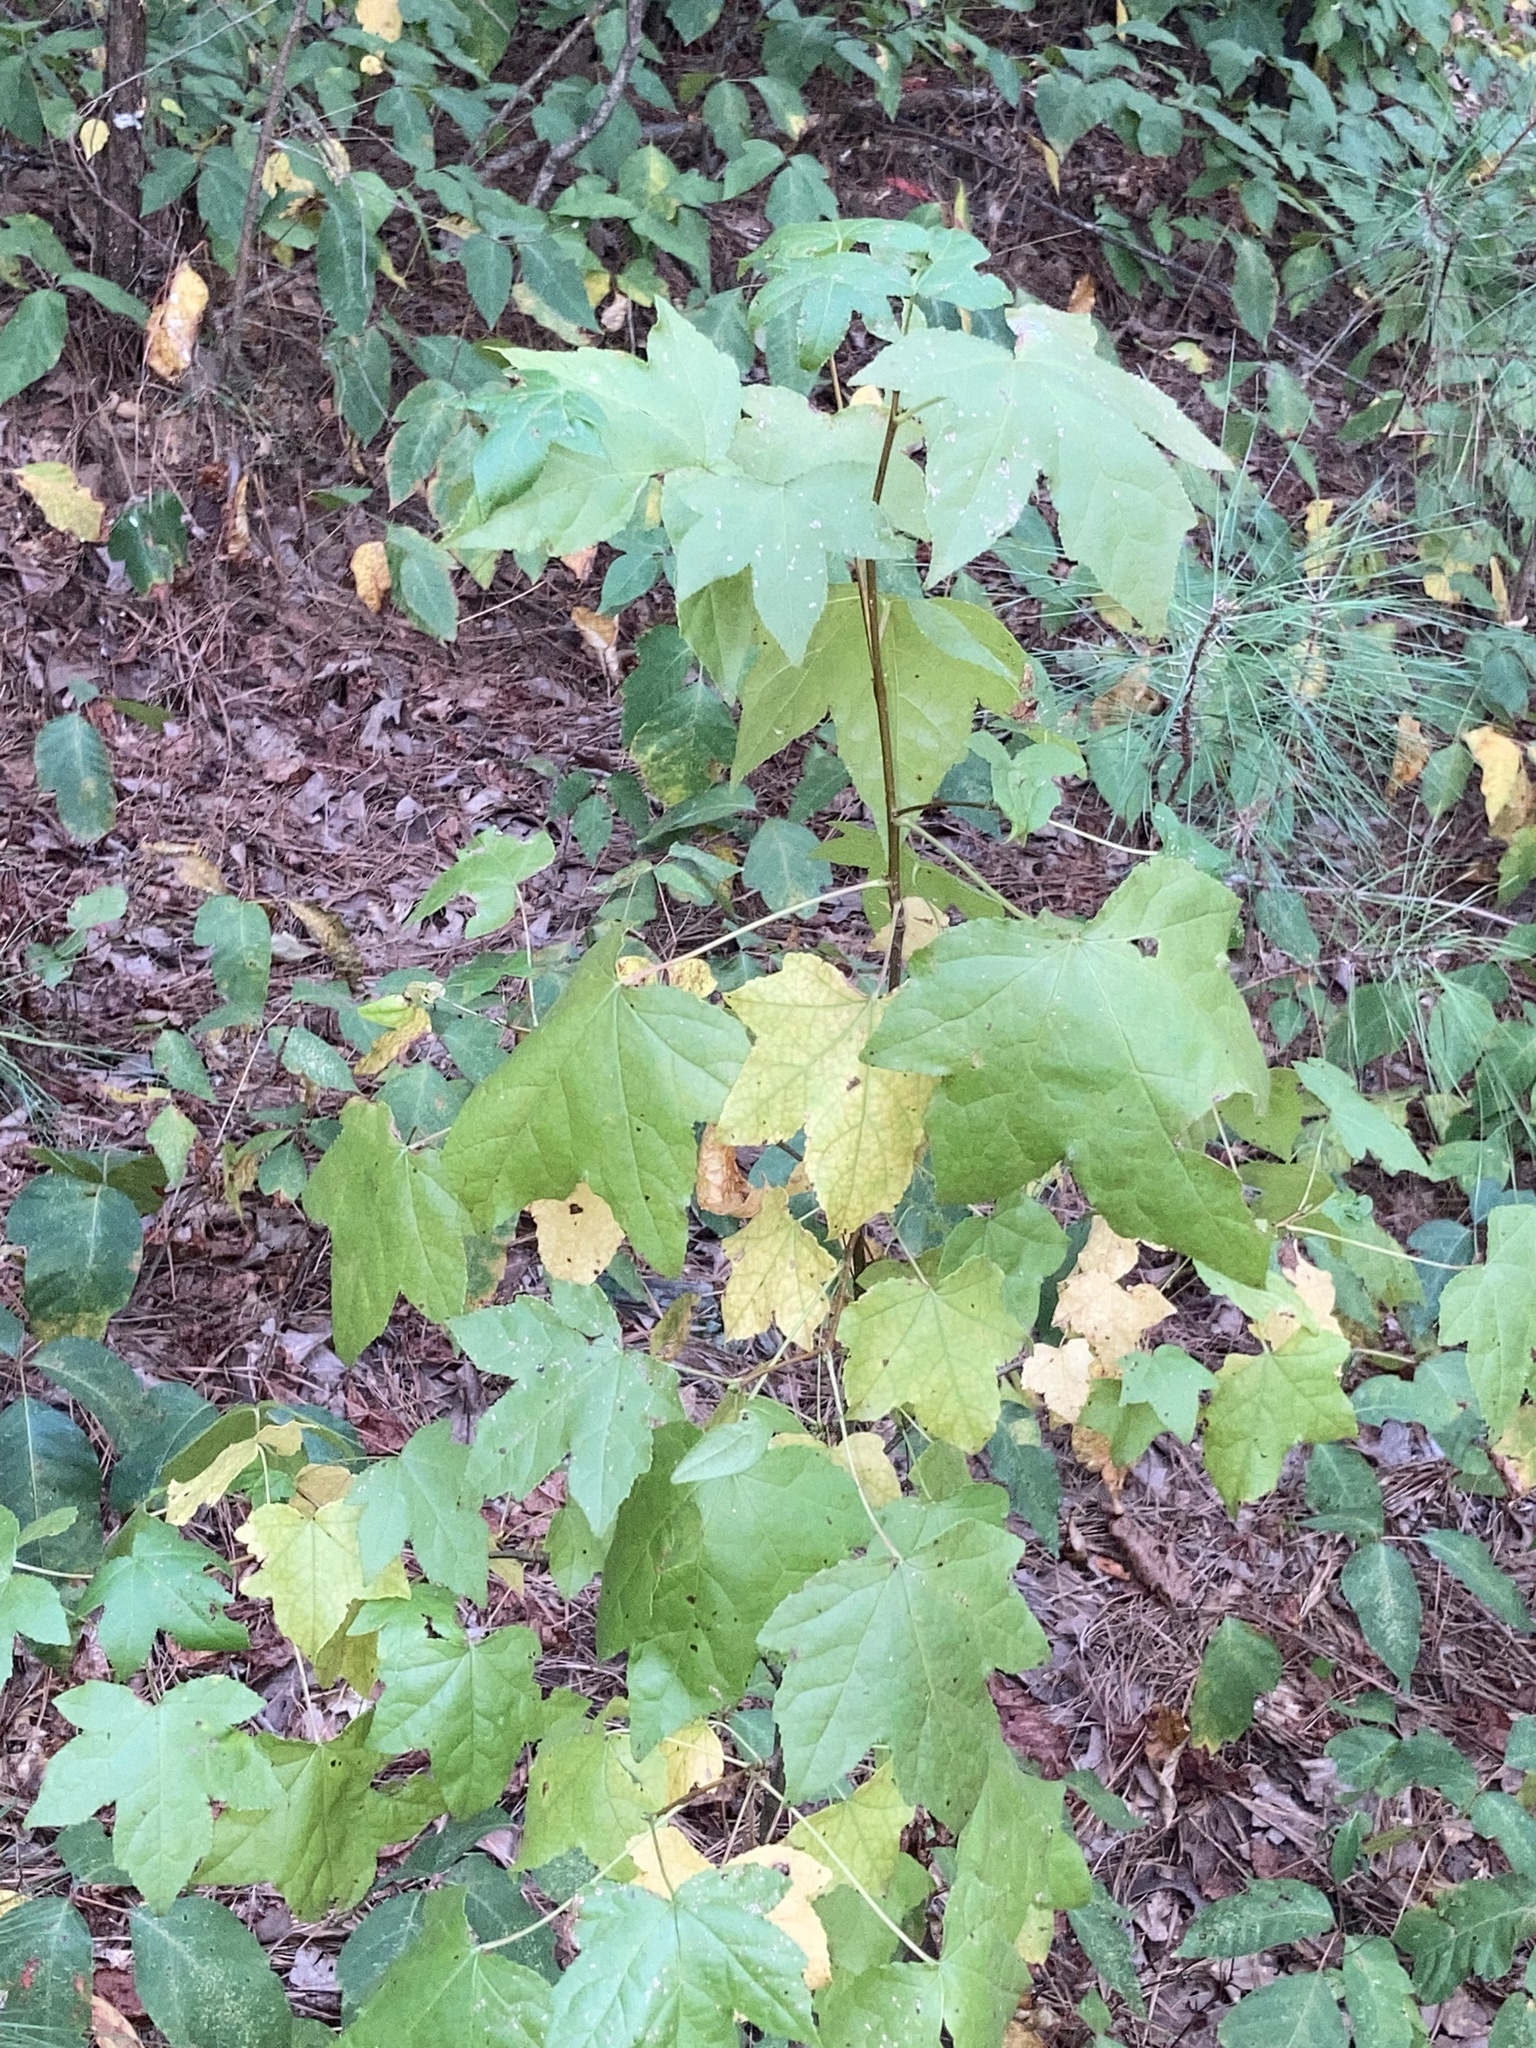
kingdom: Plantae
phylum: Tracheophyta
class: Magnoliopsida
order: Saxifragales
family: Altingiaceae
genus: Liquidambar
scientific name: Liquidambar styraciflua
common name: Sweet gum
